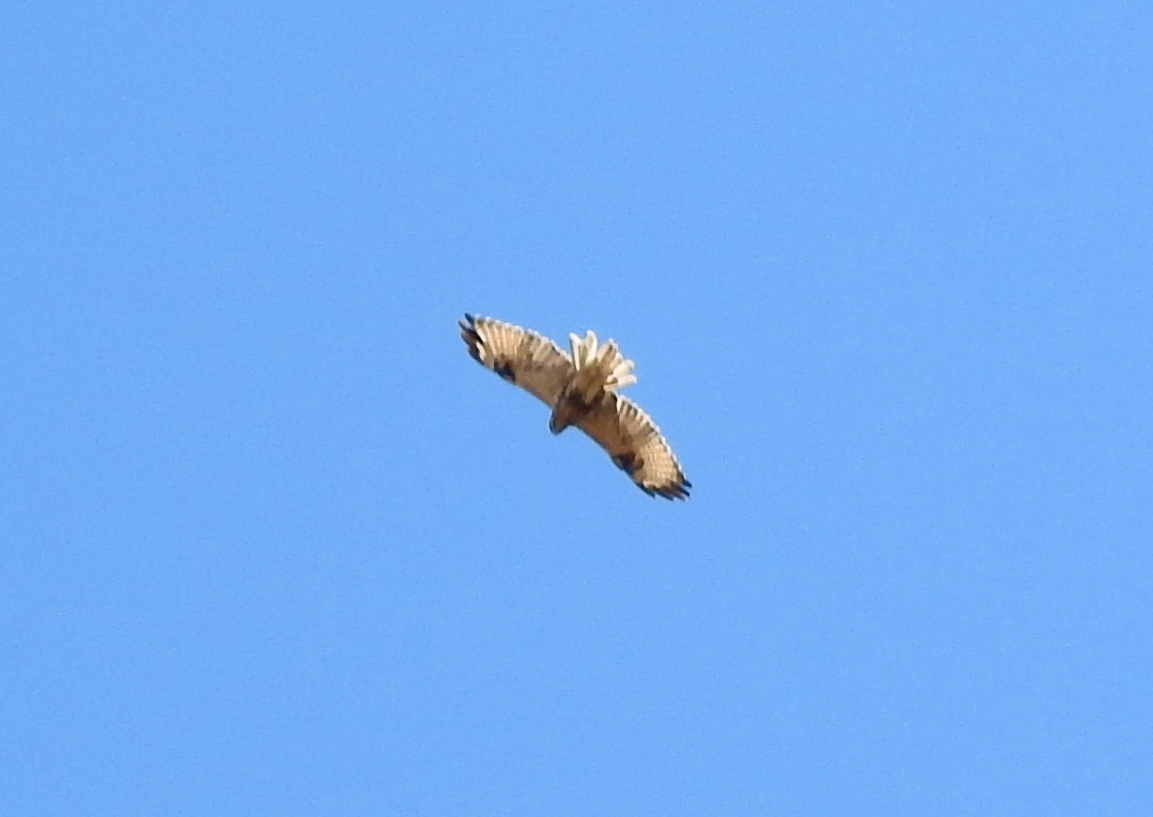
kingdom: Animalia
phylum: Chordata
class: Aves
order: Accipitriformes
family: Accipitridae
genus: Buteo
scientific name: Buteo hemilasius
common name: Upland buzzard
